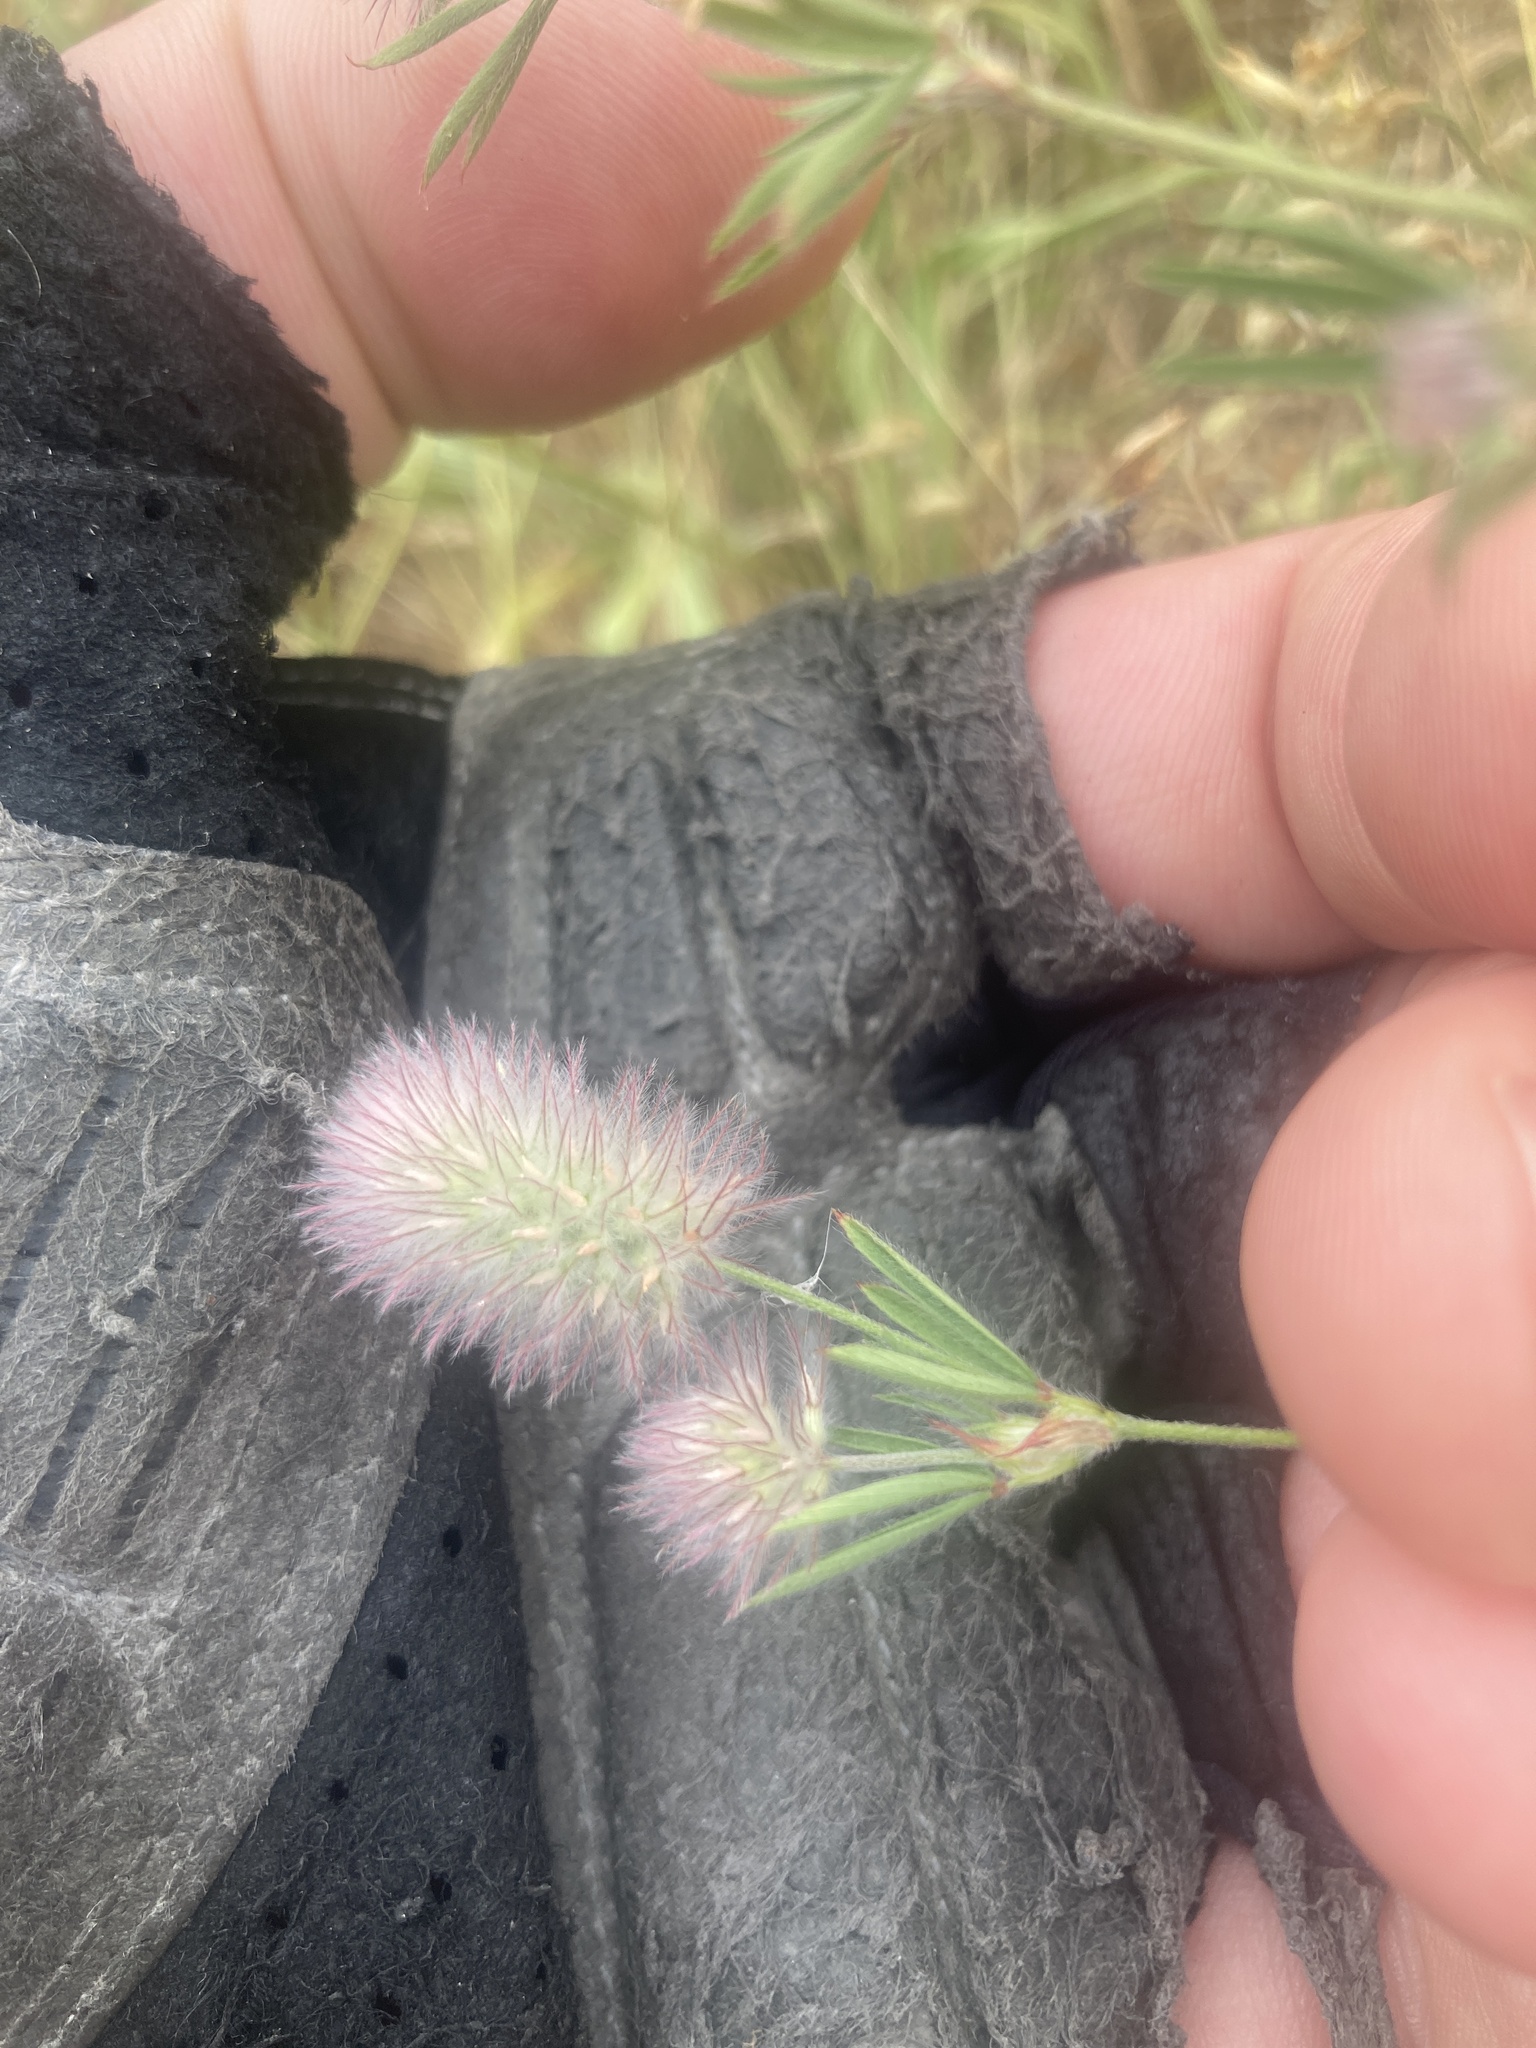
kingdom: Plantae
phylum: Tracheophyta
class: Magnoliopsida
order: Fabales
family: Fabaceae
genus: Trifolium
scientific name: Trifolium arvense
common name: Hare's-foot clover
